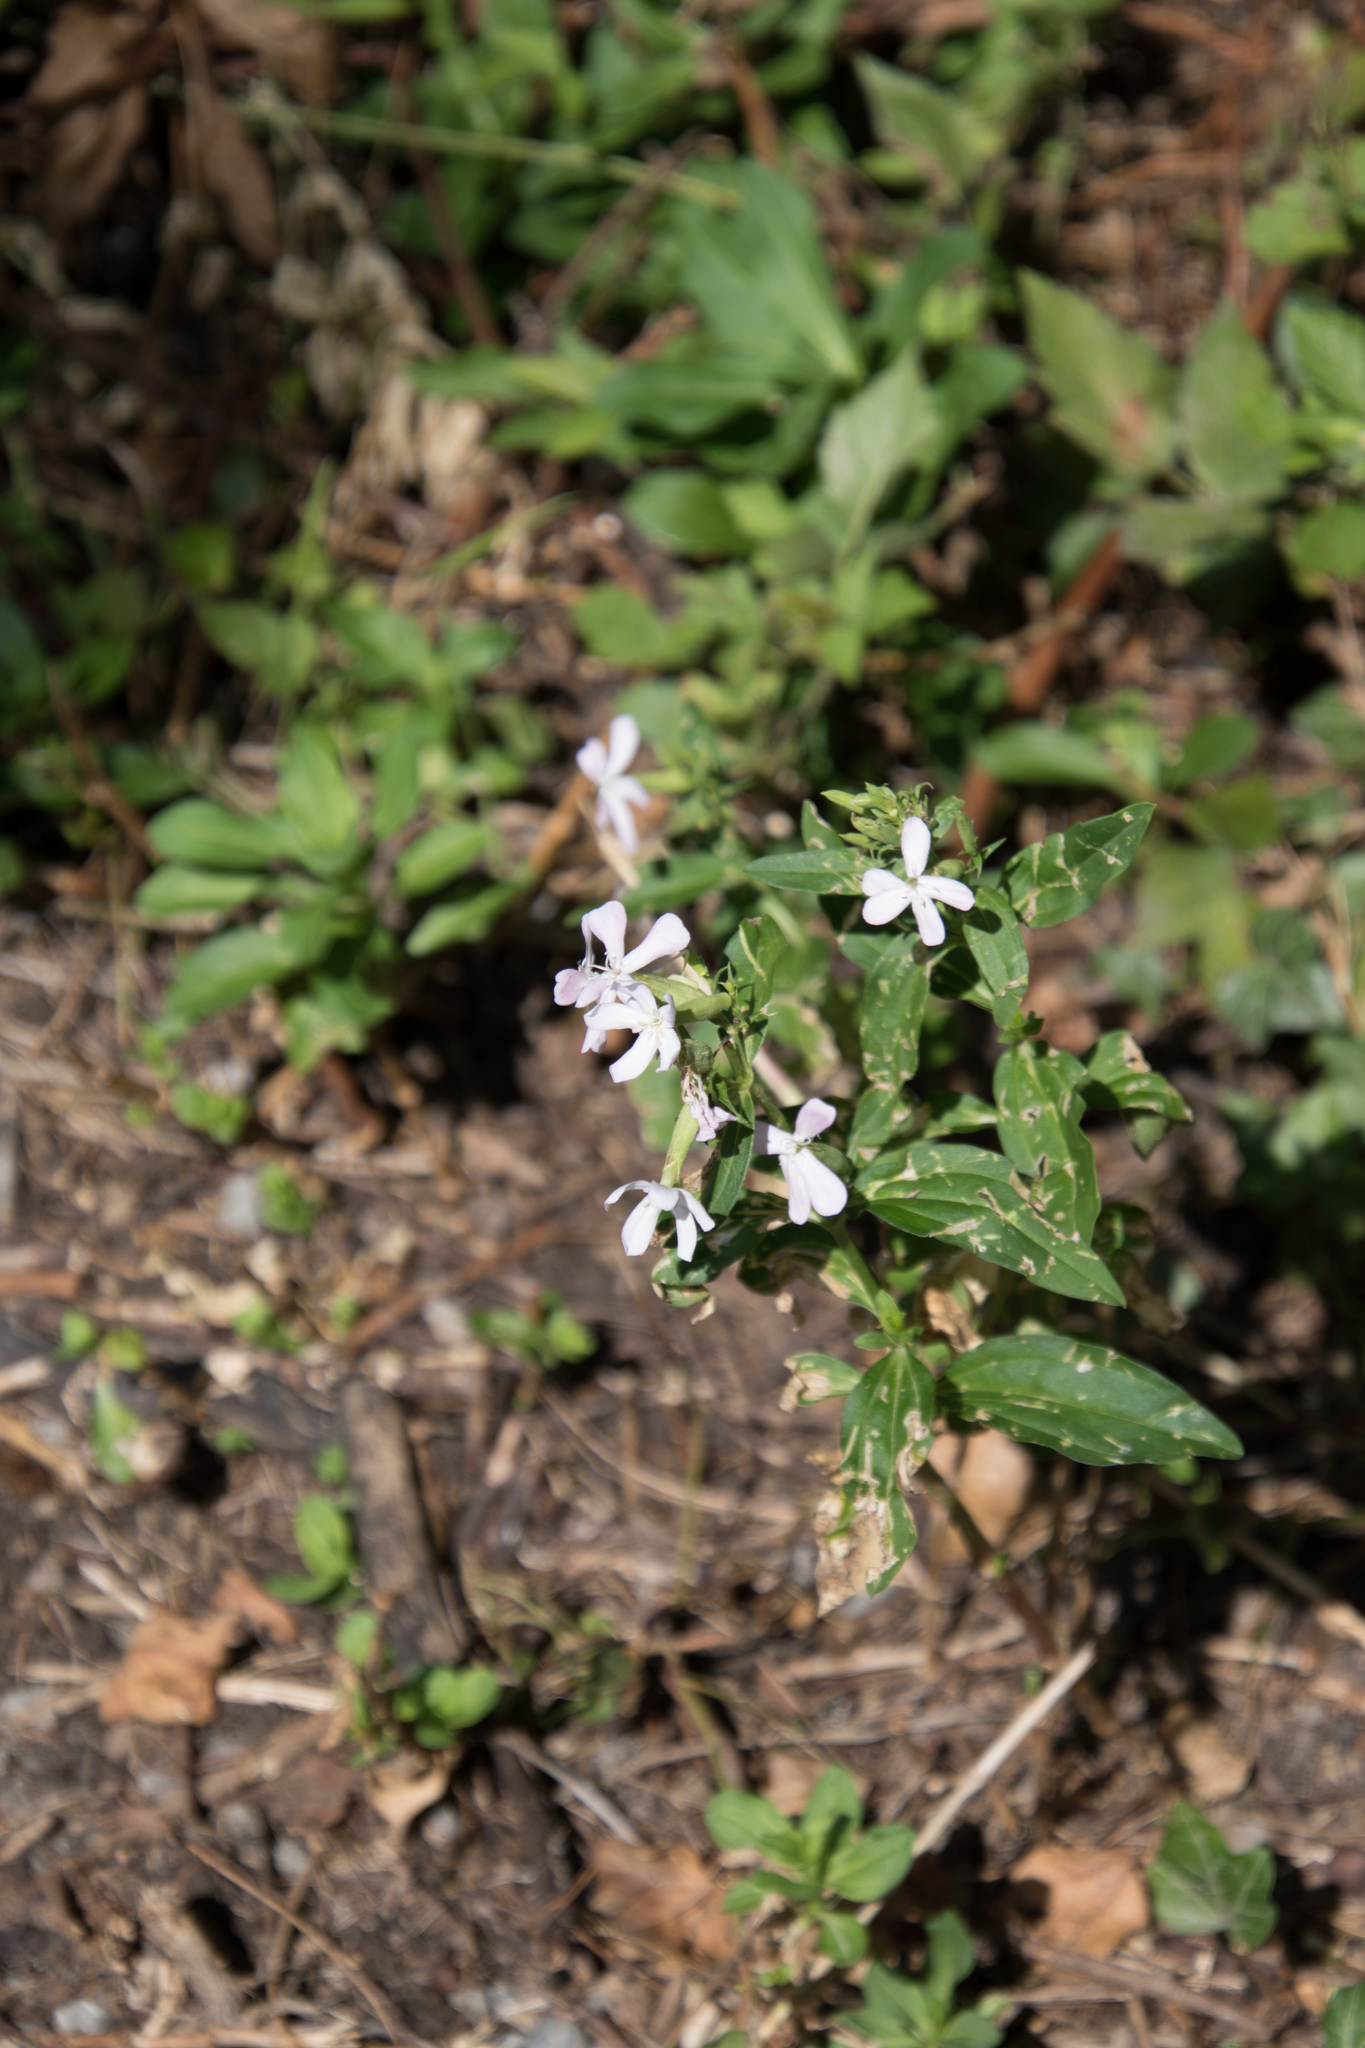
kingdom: Plantae
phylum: Tracheophyta
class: Magnoliopsida
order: Caryophyllales
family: Caryophyllaceae
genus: Saponaria
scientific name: Saponaria officinalis
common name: Soapwort
